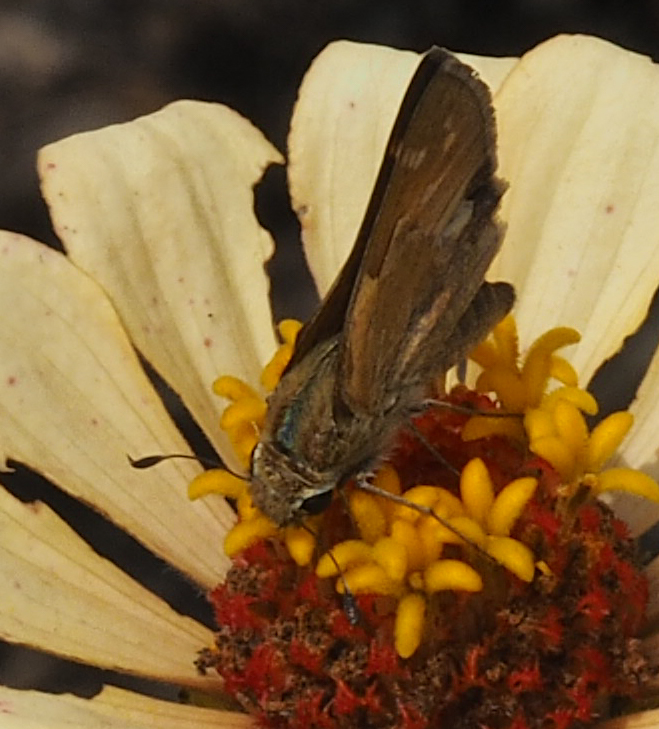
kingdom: Animalia
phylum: Arthropoda
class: Insecta
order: Lepidoptera
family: Hesperiidae
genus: Atalopedes
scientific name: Atalopedes
